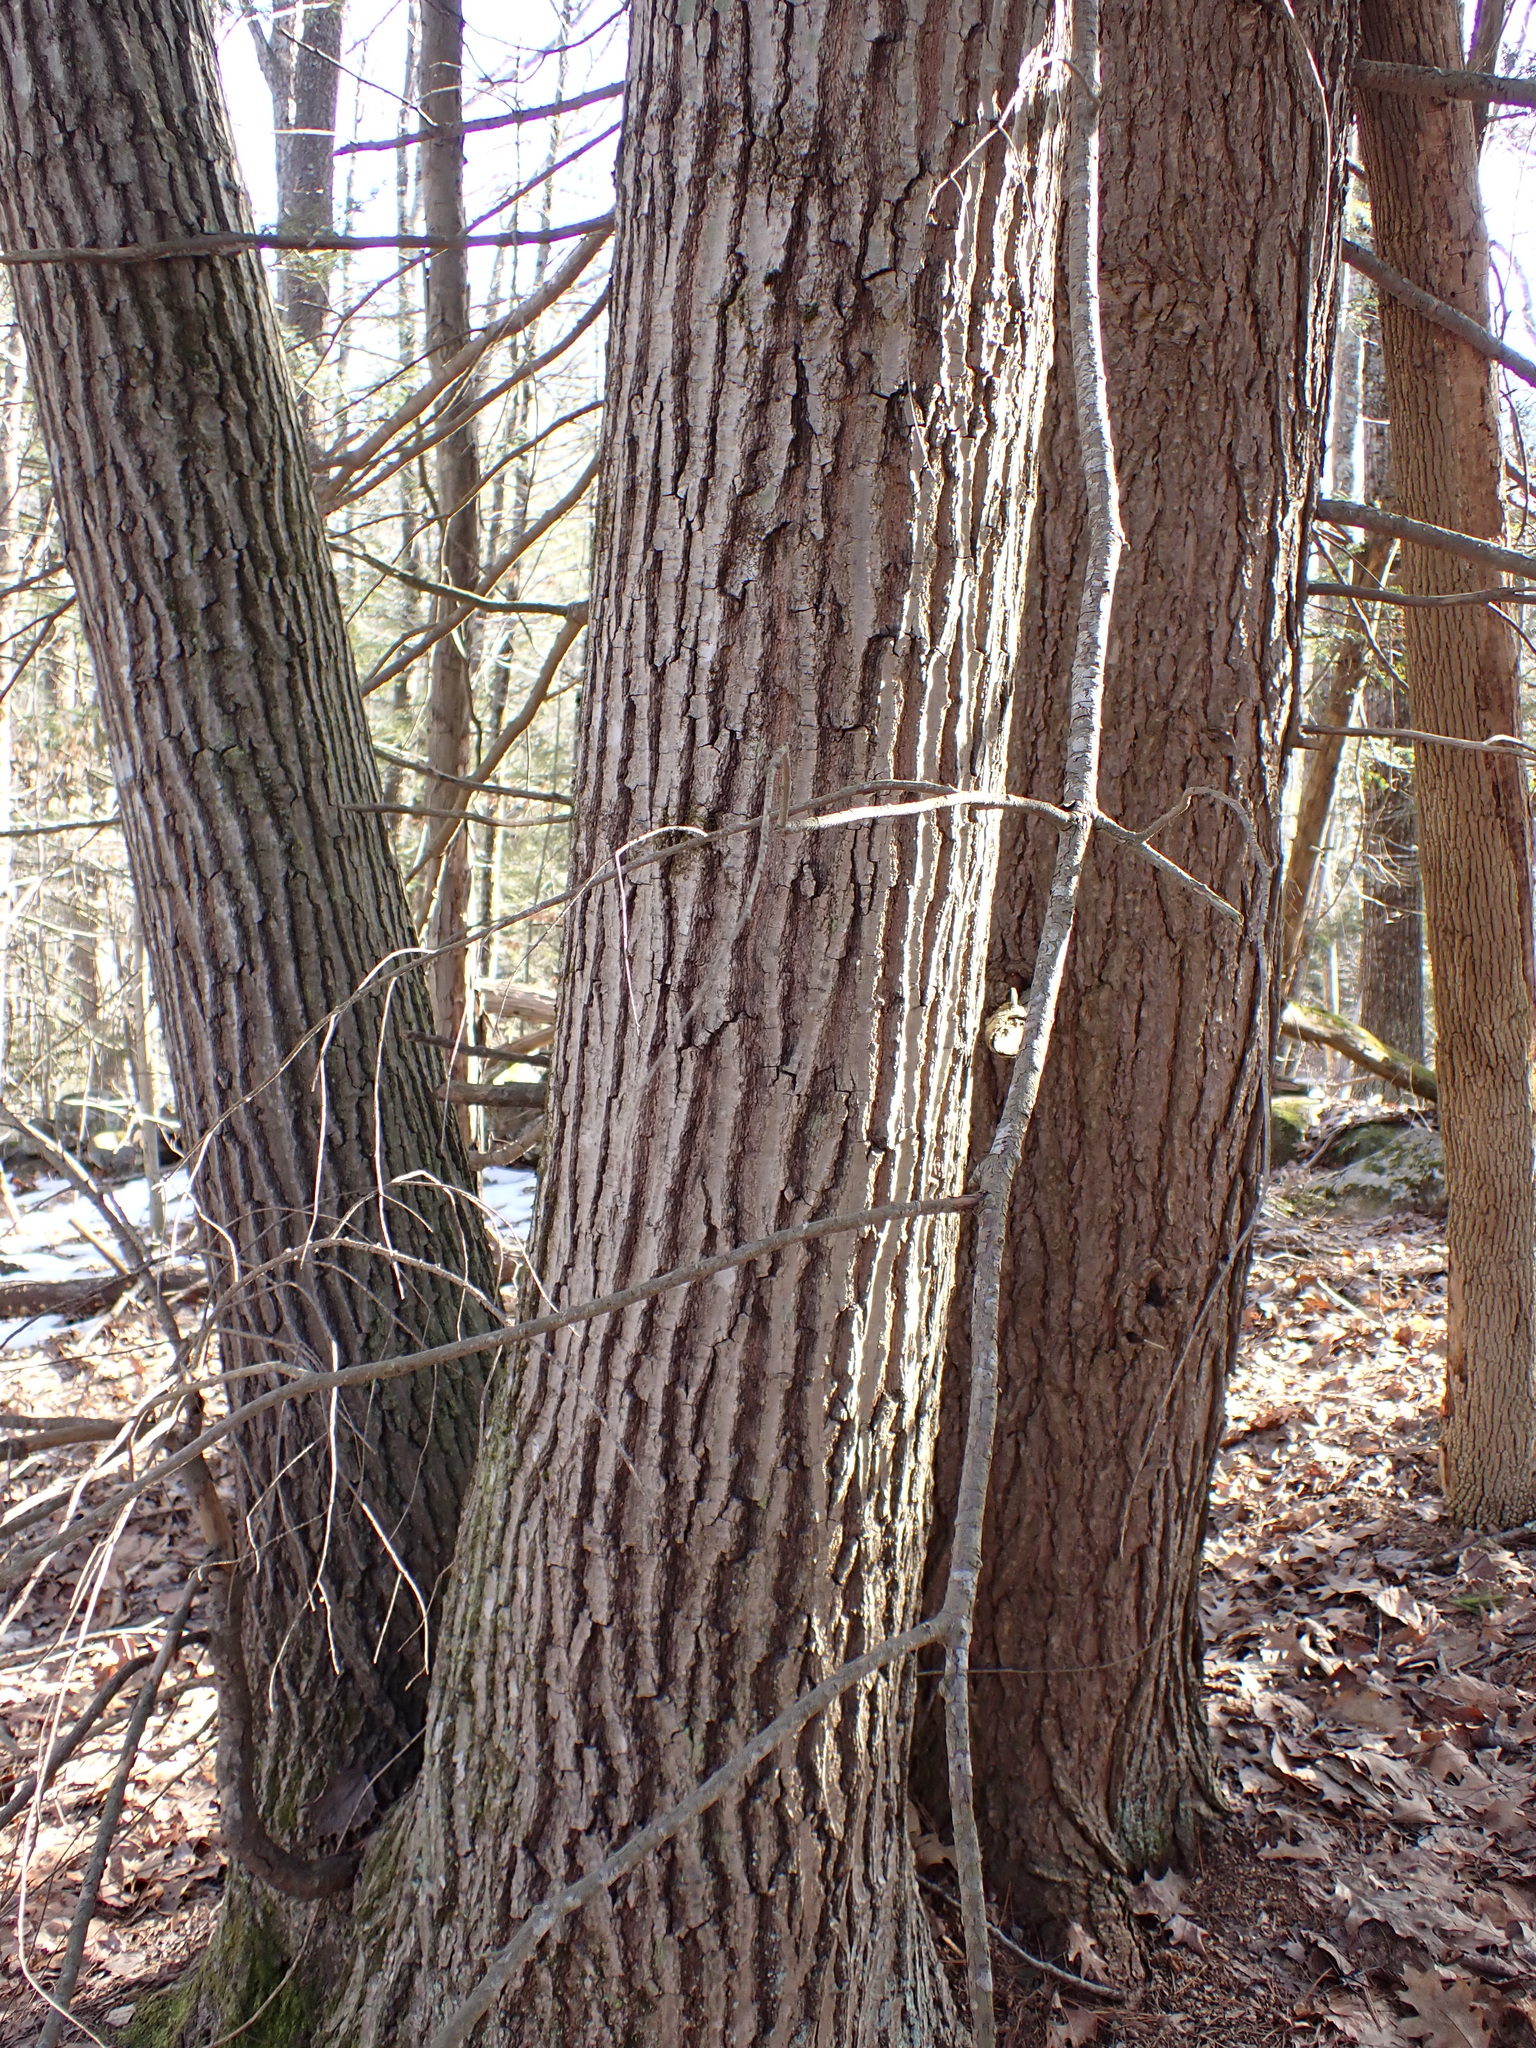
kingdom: Plantae
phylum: Tracheophyta
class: Magnoliopsida
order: Fagales
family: Fagaceae
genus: Quercus
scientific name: Quercus rubra
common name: Red oak
